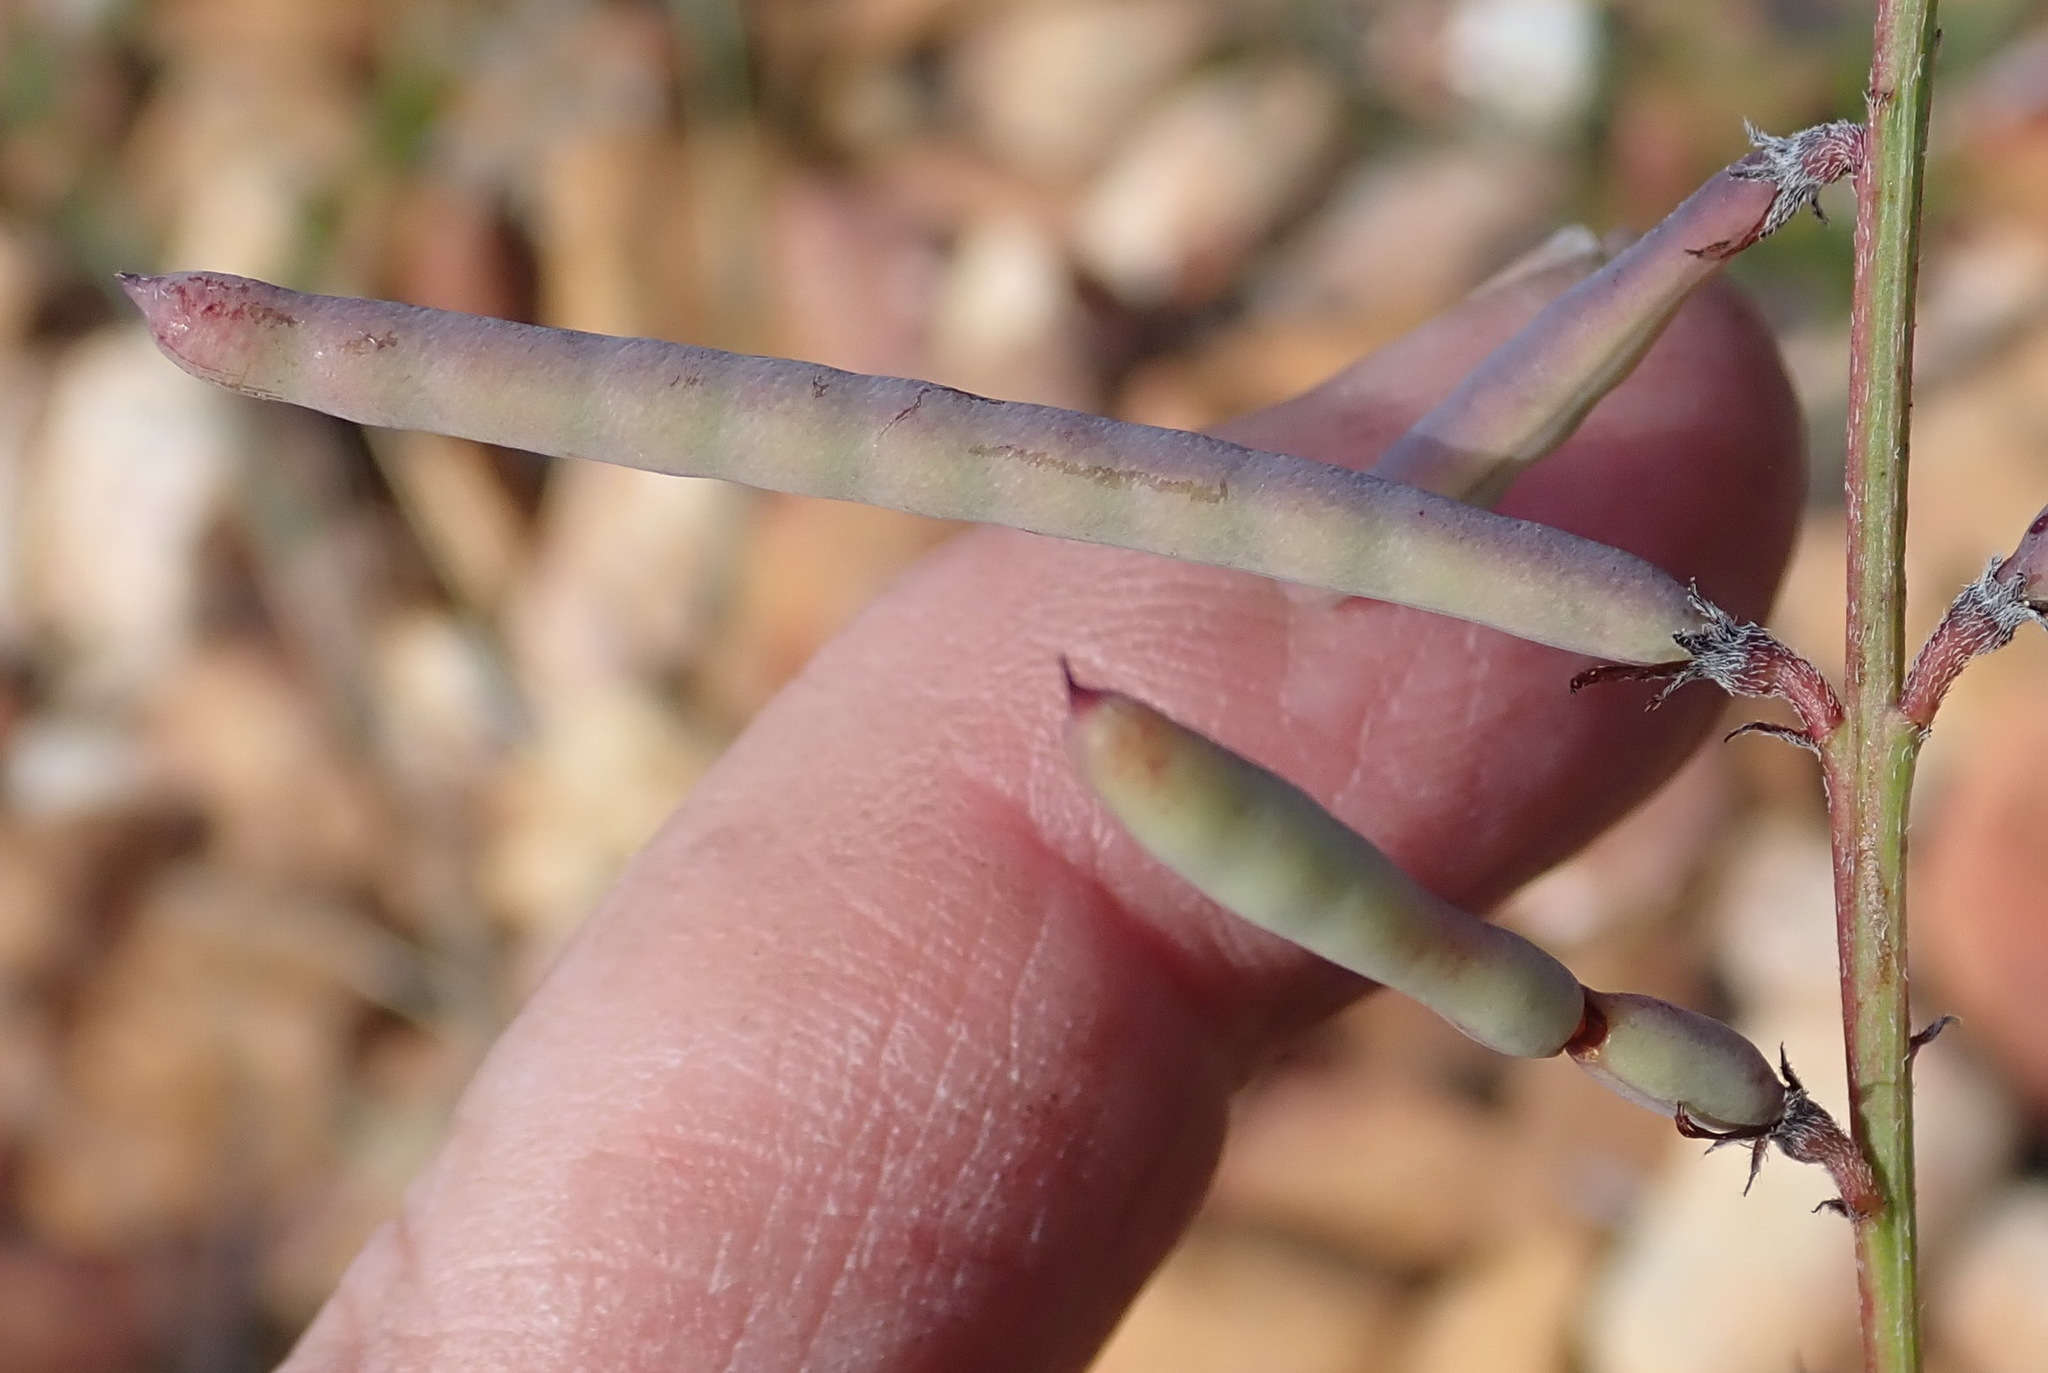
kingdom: Plantae
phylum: Tracheophyta
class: Magnoliopsida
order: Fabales
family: Fabaceae
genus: Indigofera
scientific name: Indigofera declinata
